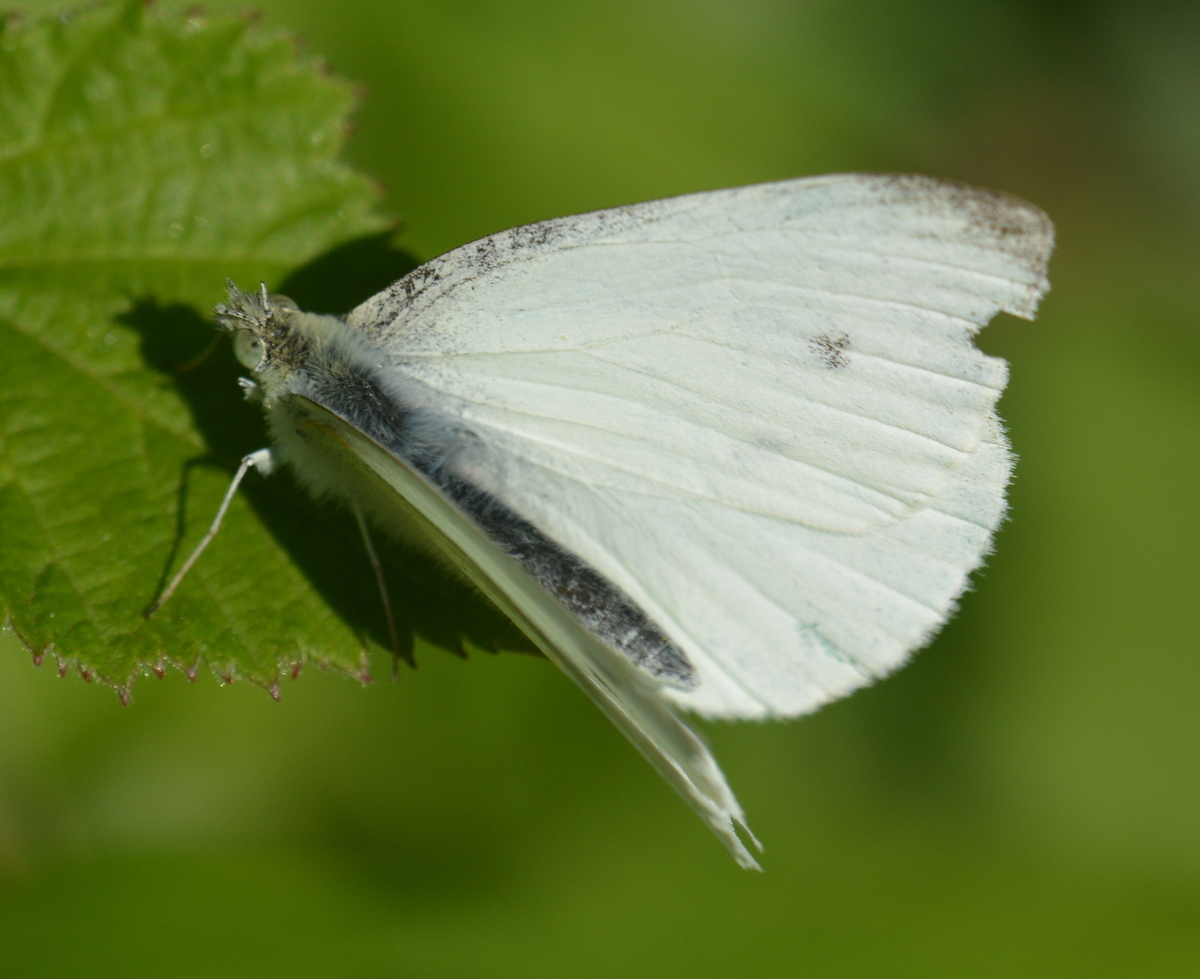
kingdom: Animalia
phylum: Arthropoda
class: Insecta
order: Lepidoptera
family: Pieridae
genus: Pieris
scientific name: Pieris rapae
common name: Small white
